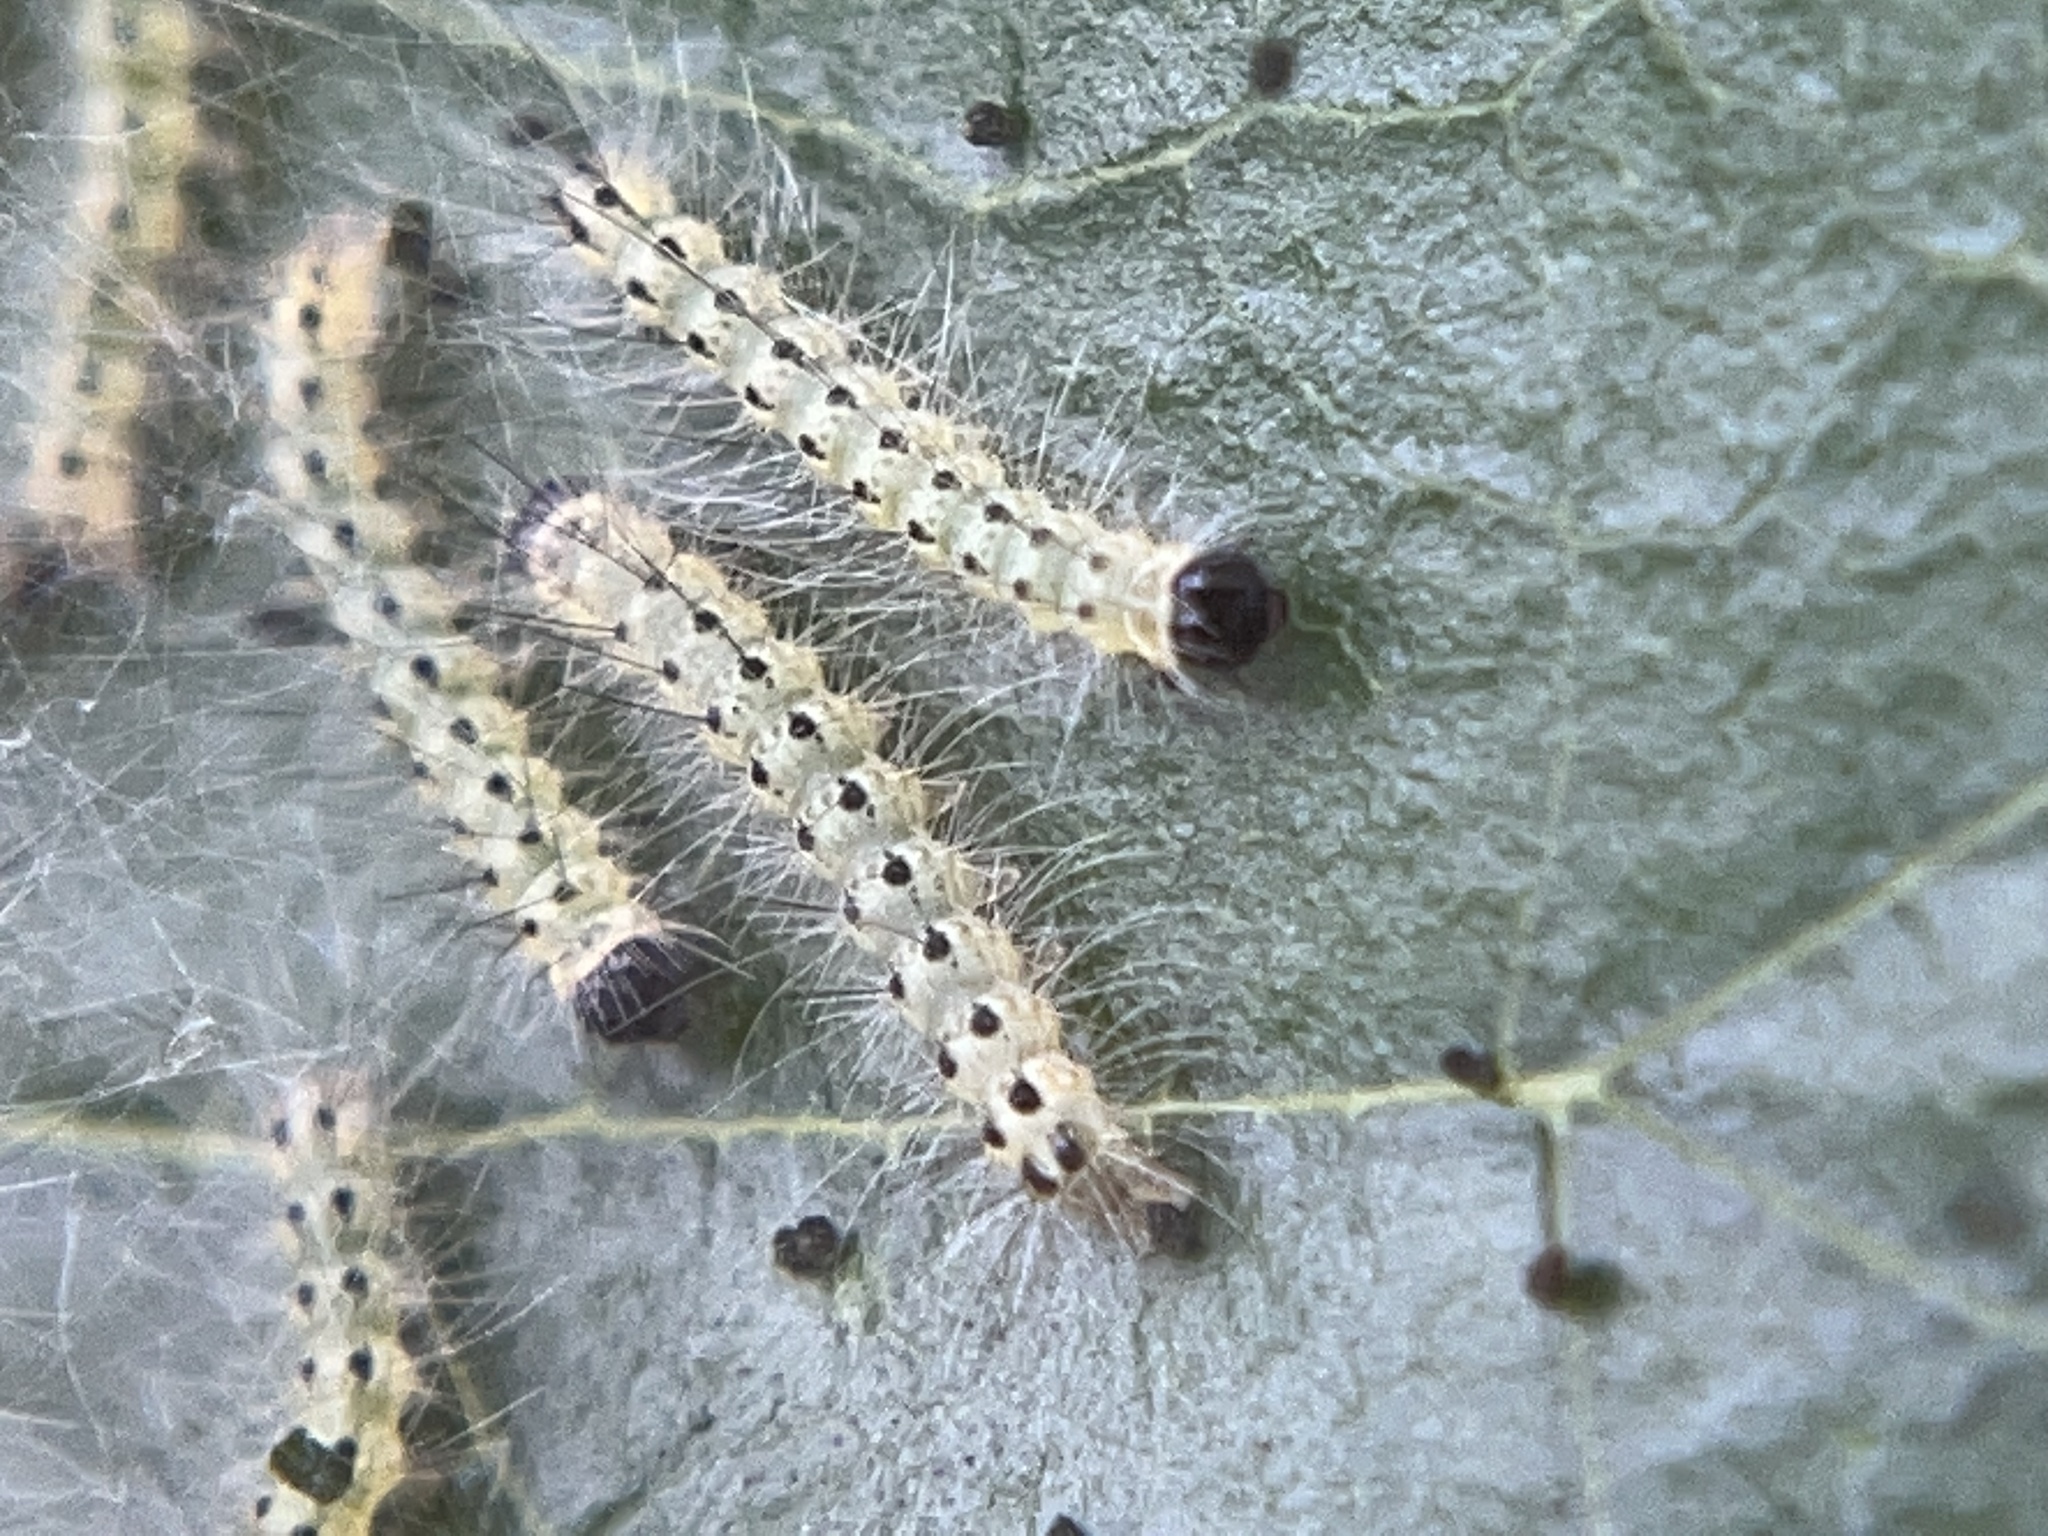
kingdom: Animalia
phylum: Arthropoda
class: Insecta
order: Lepidoptera
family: Erebidae
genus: Hyphantria
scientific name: Hyphantria cunea
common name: American white moth
